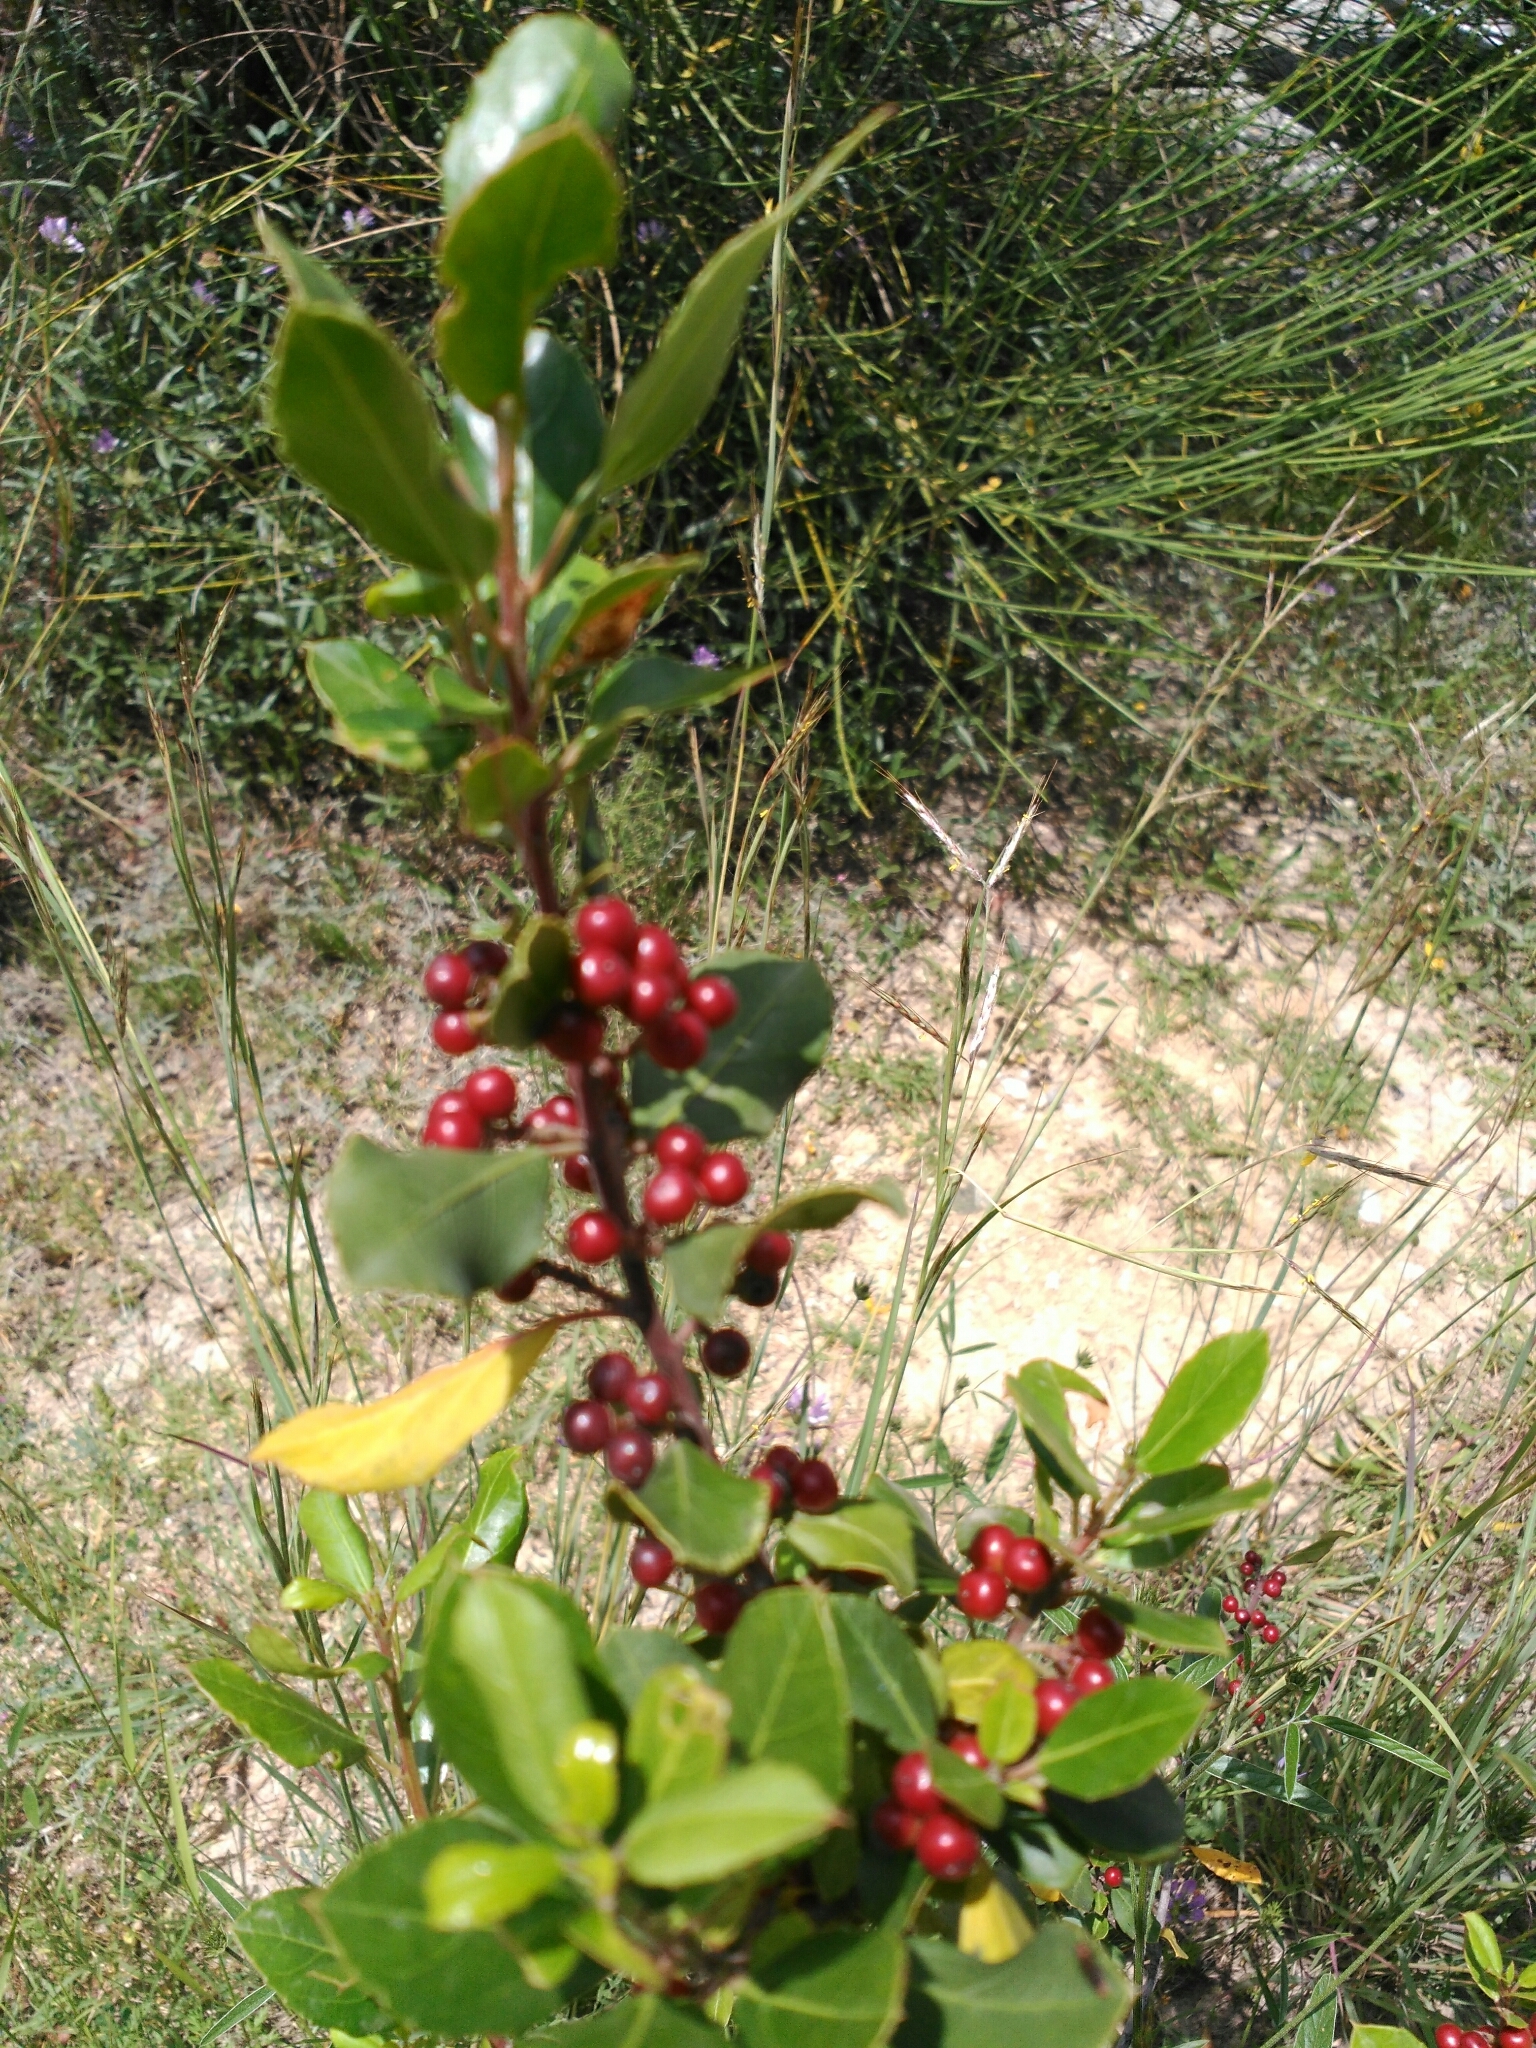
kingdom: Plantae
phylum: Tracheophyta
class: Magnoliopsida
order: Rosales
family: Rhamnaceae
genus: Rhamnus
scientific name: Rhamnus alaternus
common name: Mediterranean buckthorn
